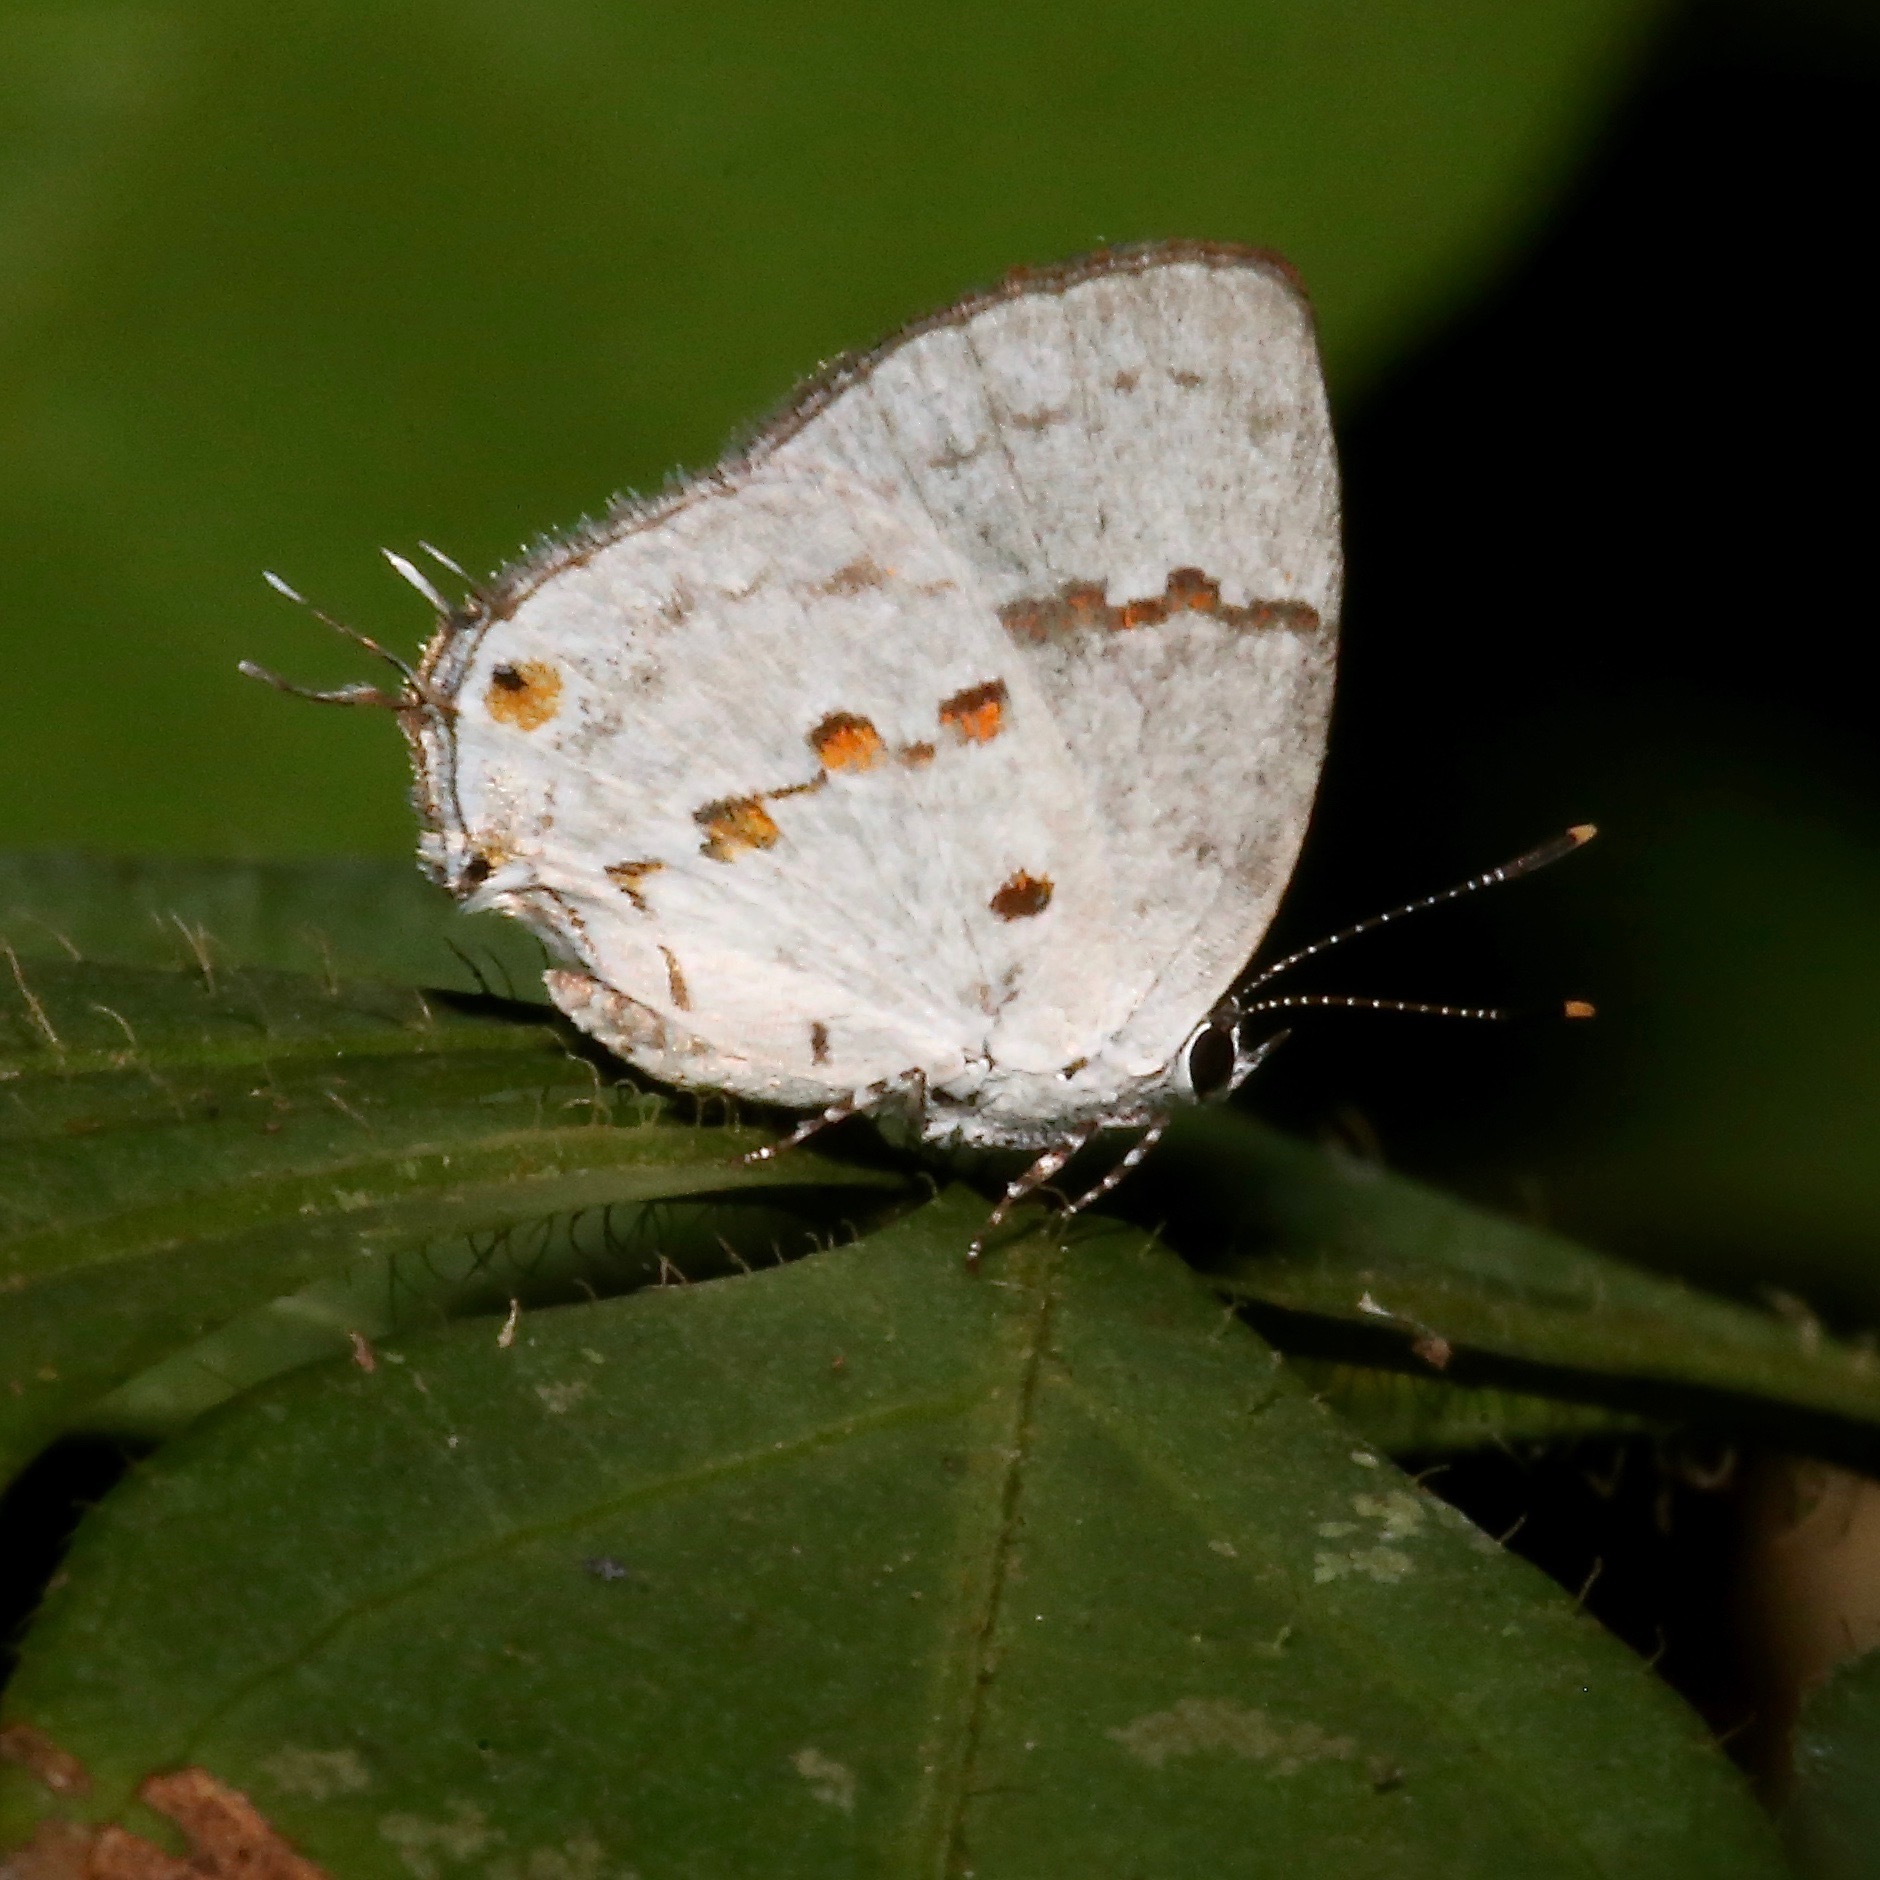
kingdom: Animalia
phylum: Arthropoda
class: Insecta
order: Lepidoptera
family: Lycaenidae
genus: Thecla
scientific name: Thecla celmus
